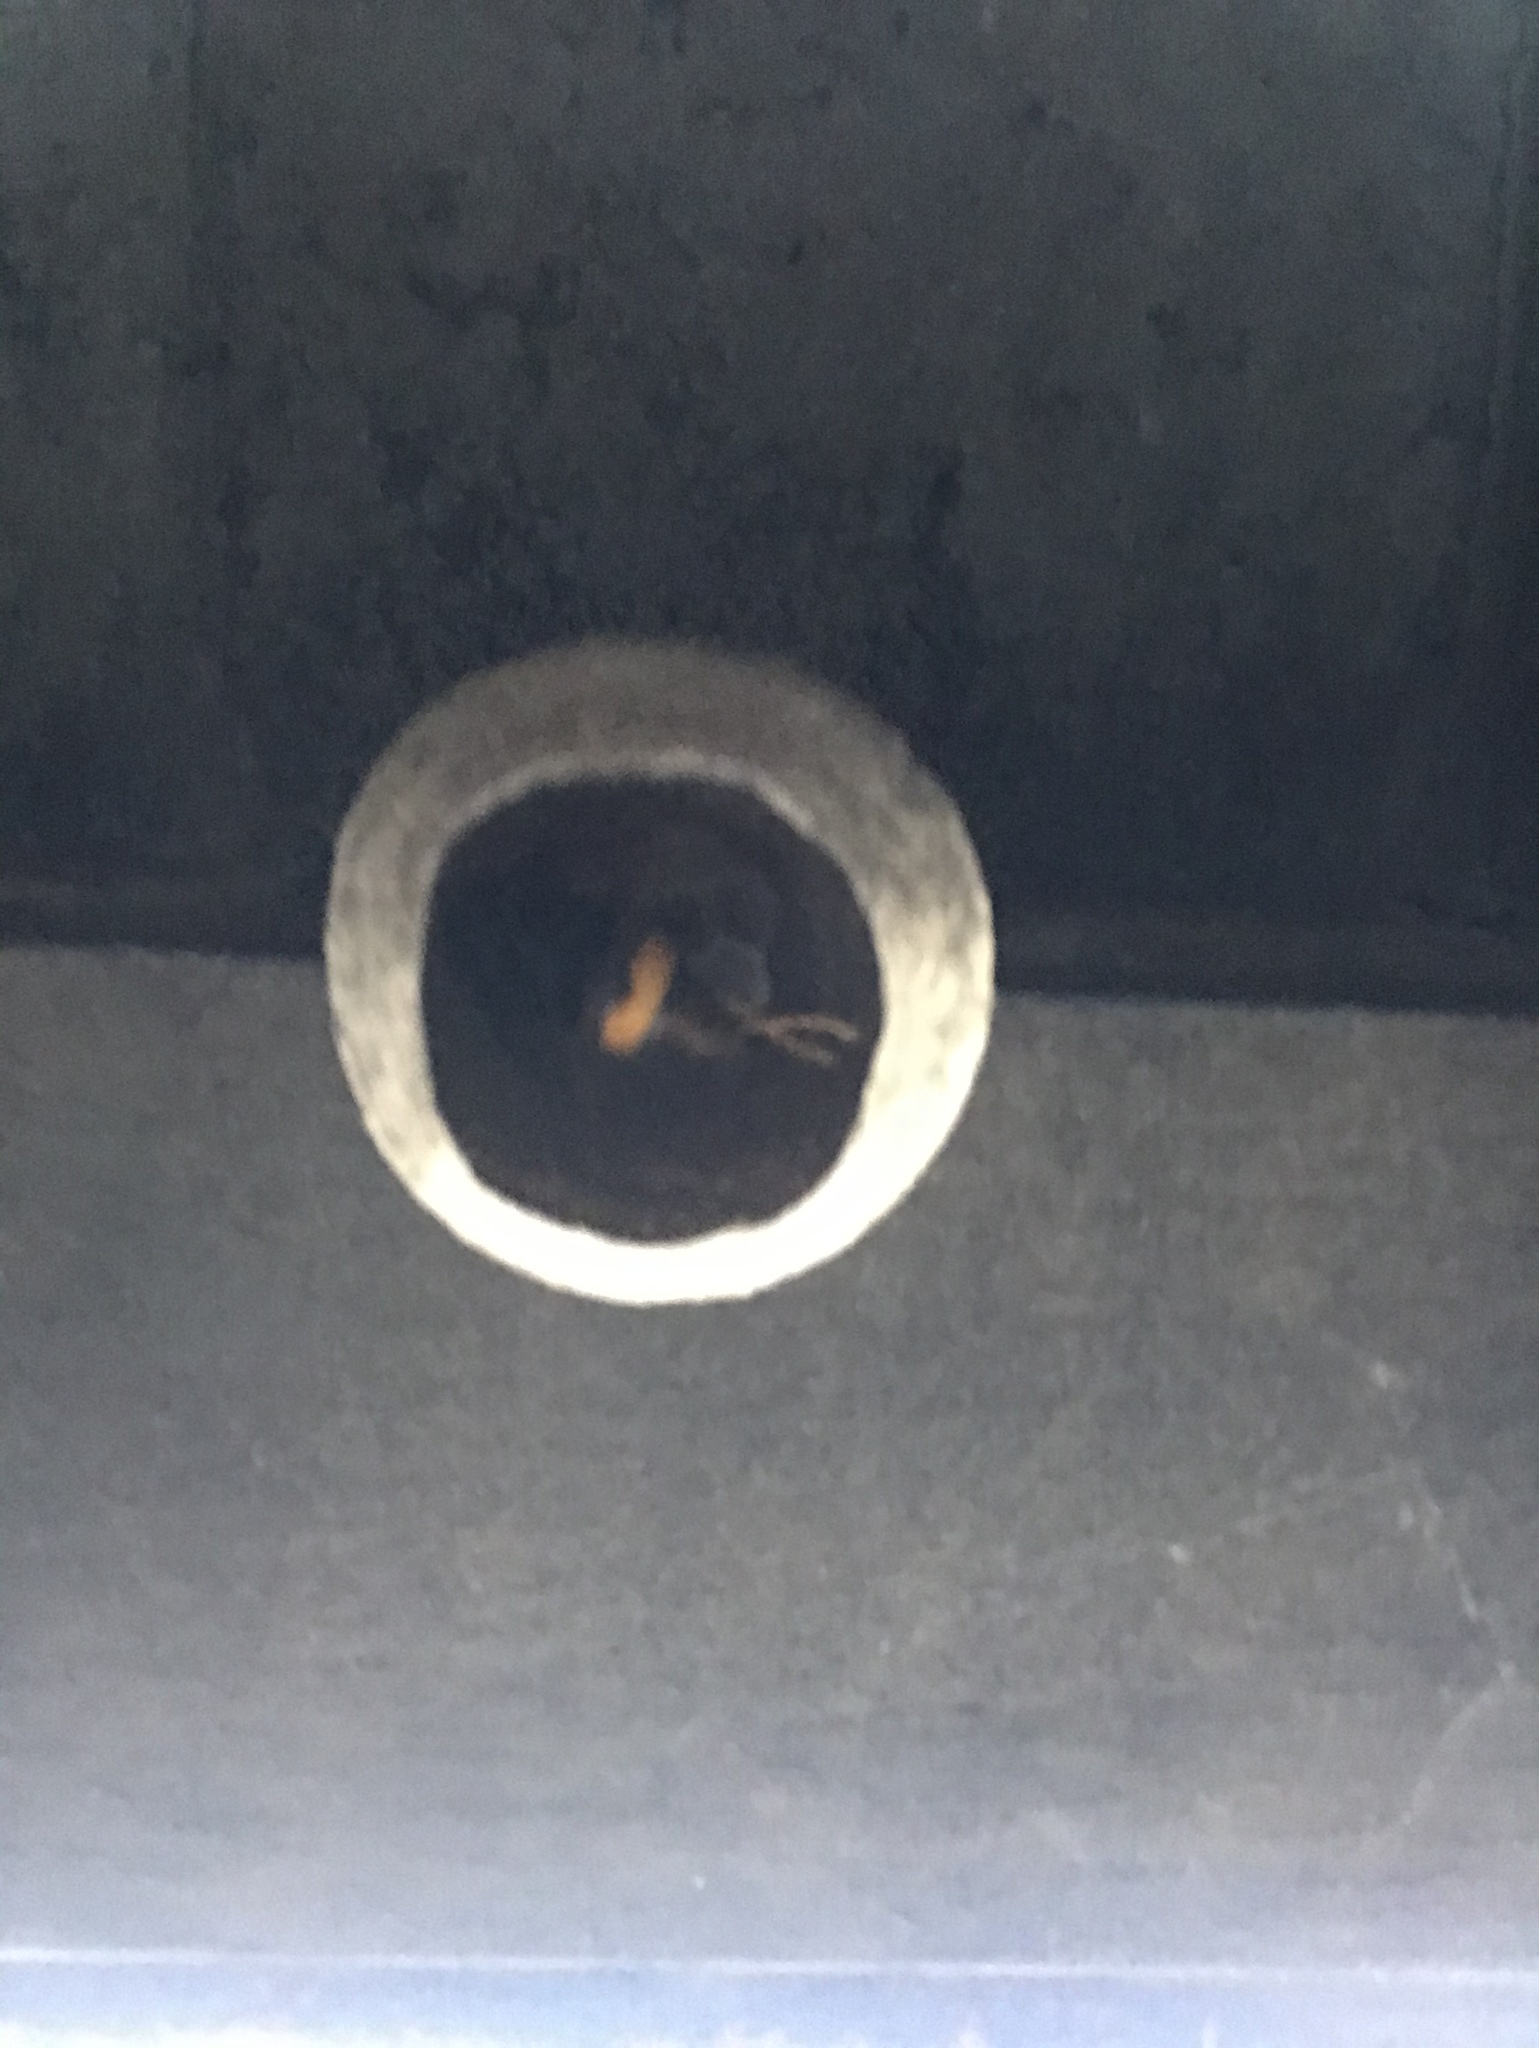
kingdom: Animalia
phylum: Arthropoda
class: Insecta
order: Hymenoptera
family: Vespidae
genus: Vespa
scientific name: Vespa velutina
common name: Asian hornet
